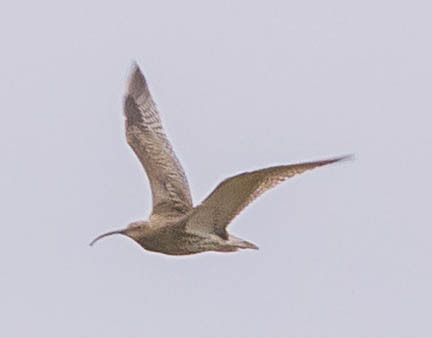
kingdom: Animalia
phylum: Chordata
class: Aves
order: Charadriiformes
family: Scolopacidae
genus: Numenius
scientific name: Numenius arquata
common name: Eurasian curlew
